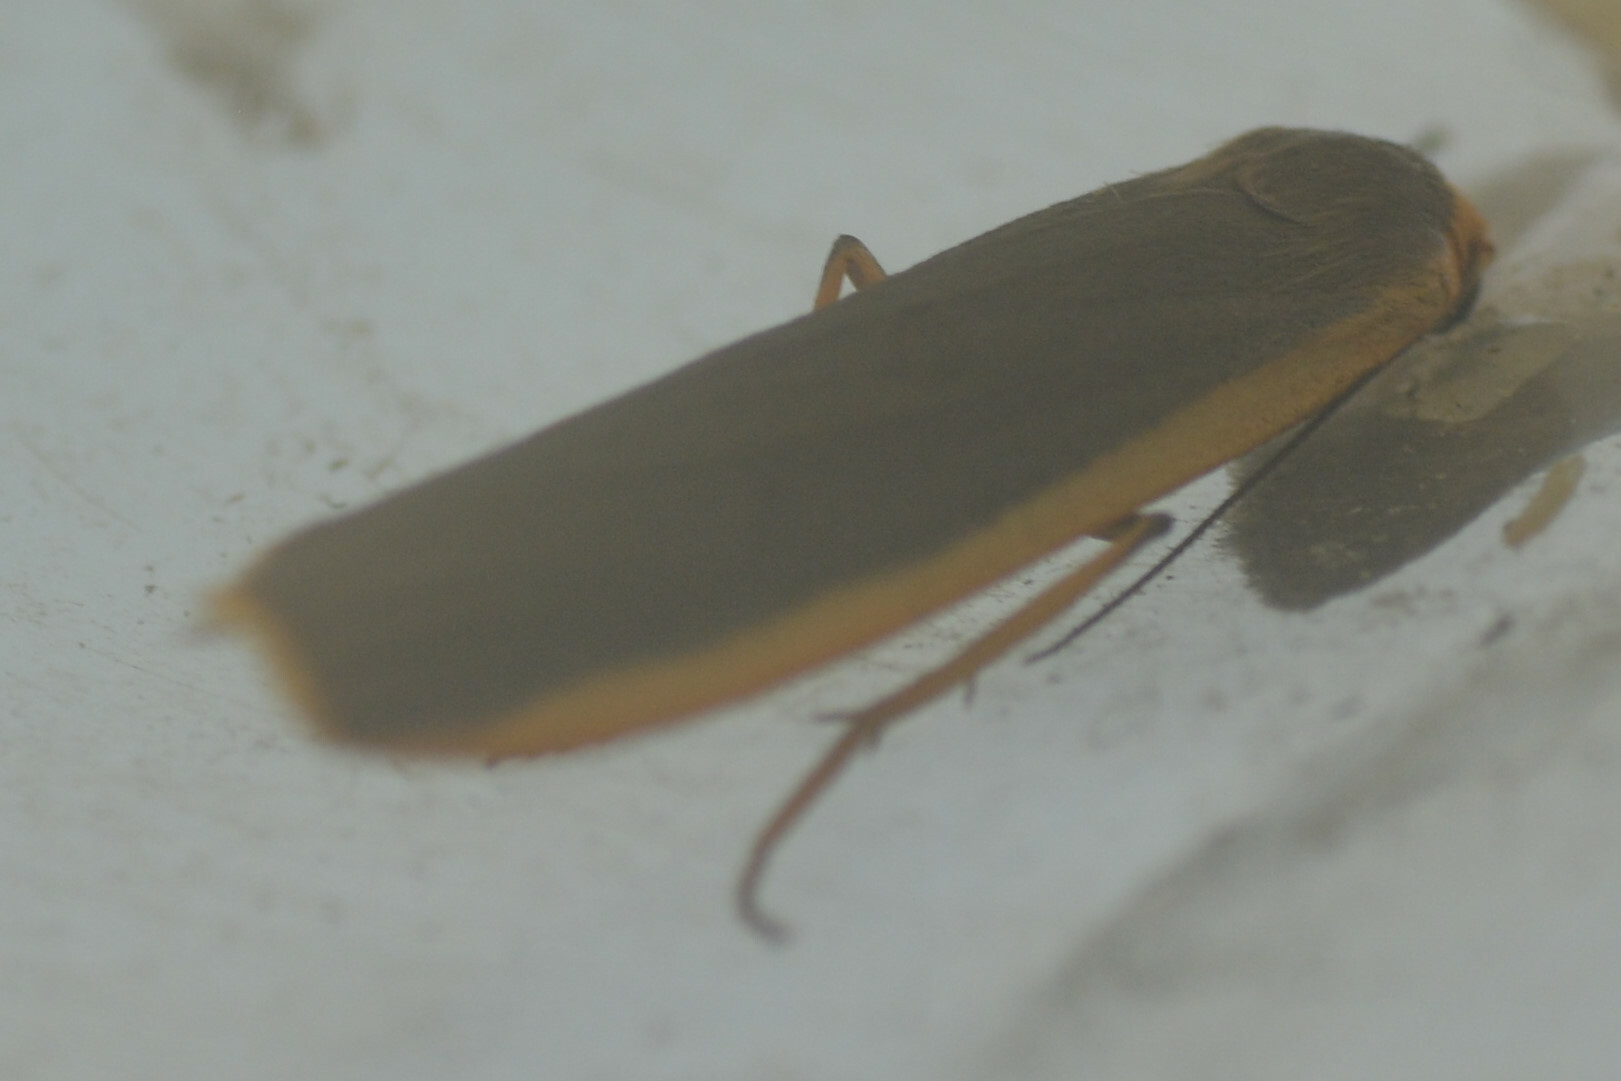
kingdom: Animalia
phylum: Arthropoda
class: Insecta
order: Lepidoptera
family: Erebidae
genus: Nyea
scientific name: Nyea lurideola
